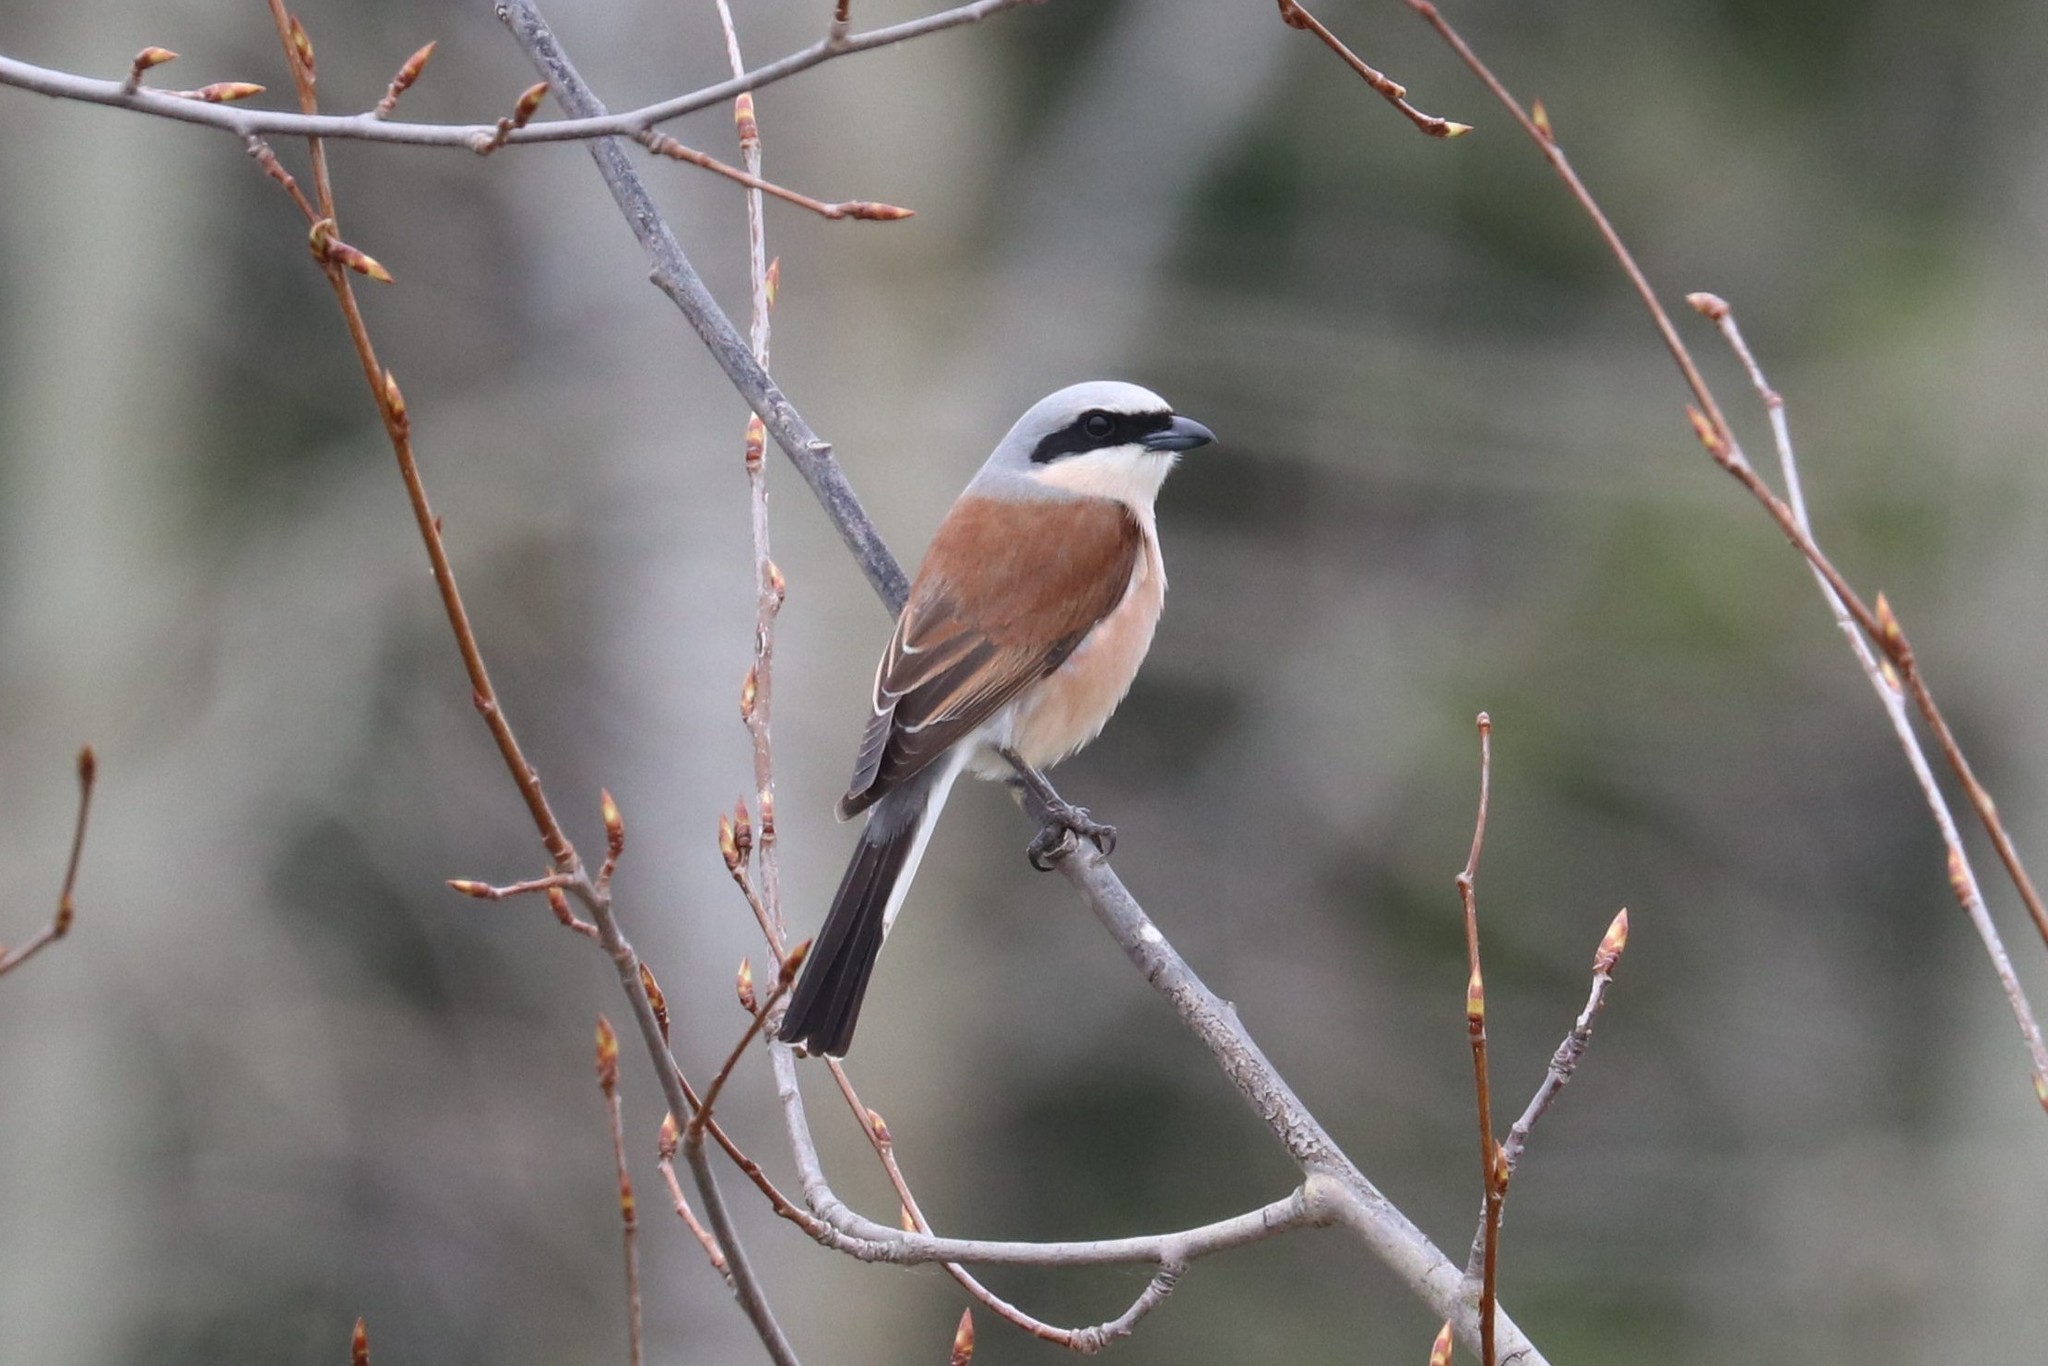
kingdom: Animalia
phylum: Chordata
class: Aves
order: Passeriformes
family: Laniidae
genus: Lanius
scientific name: Lanius collurio
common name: Red-backed shrike
